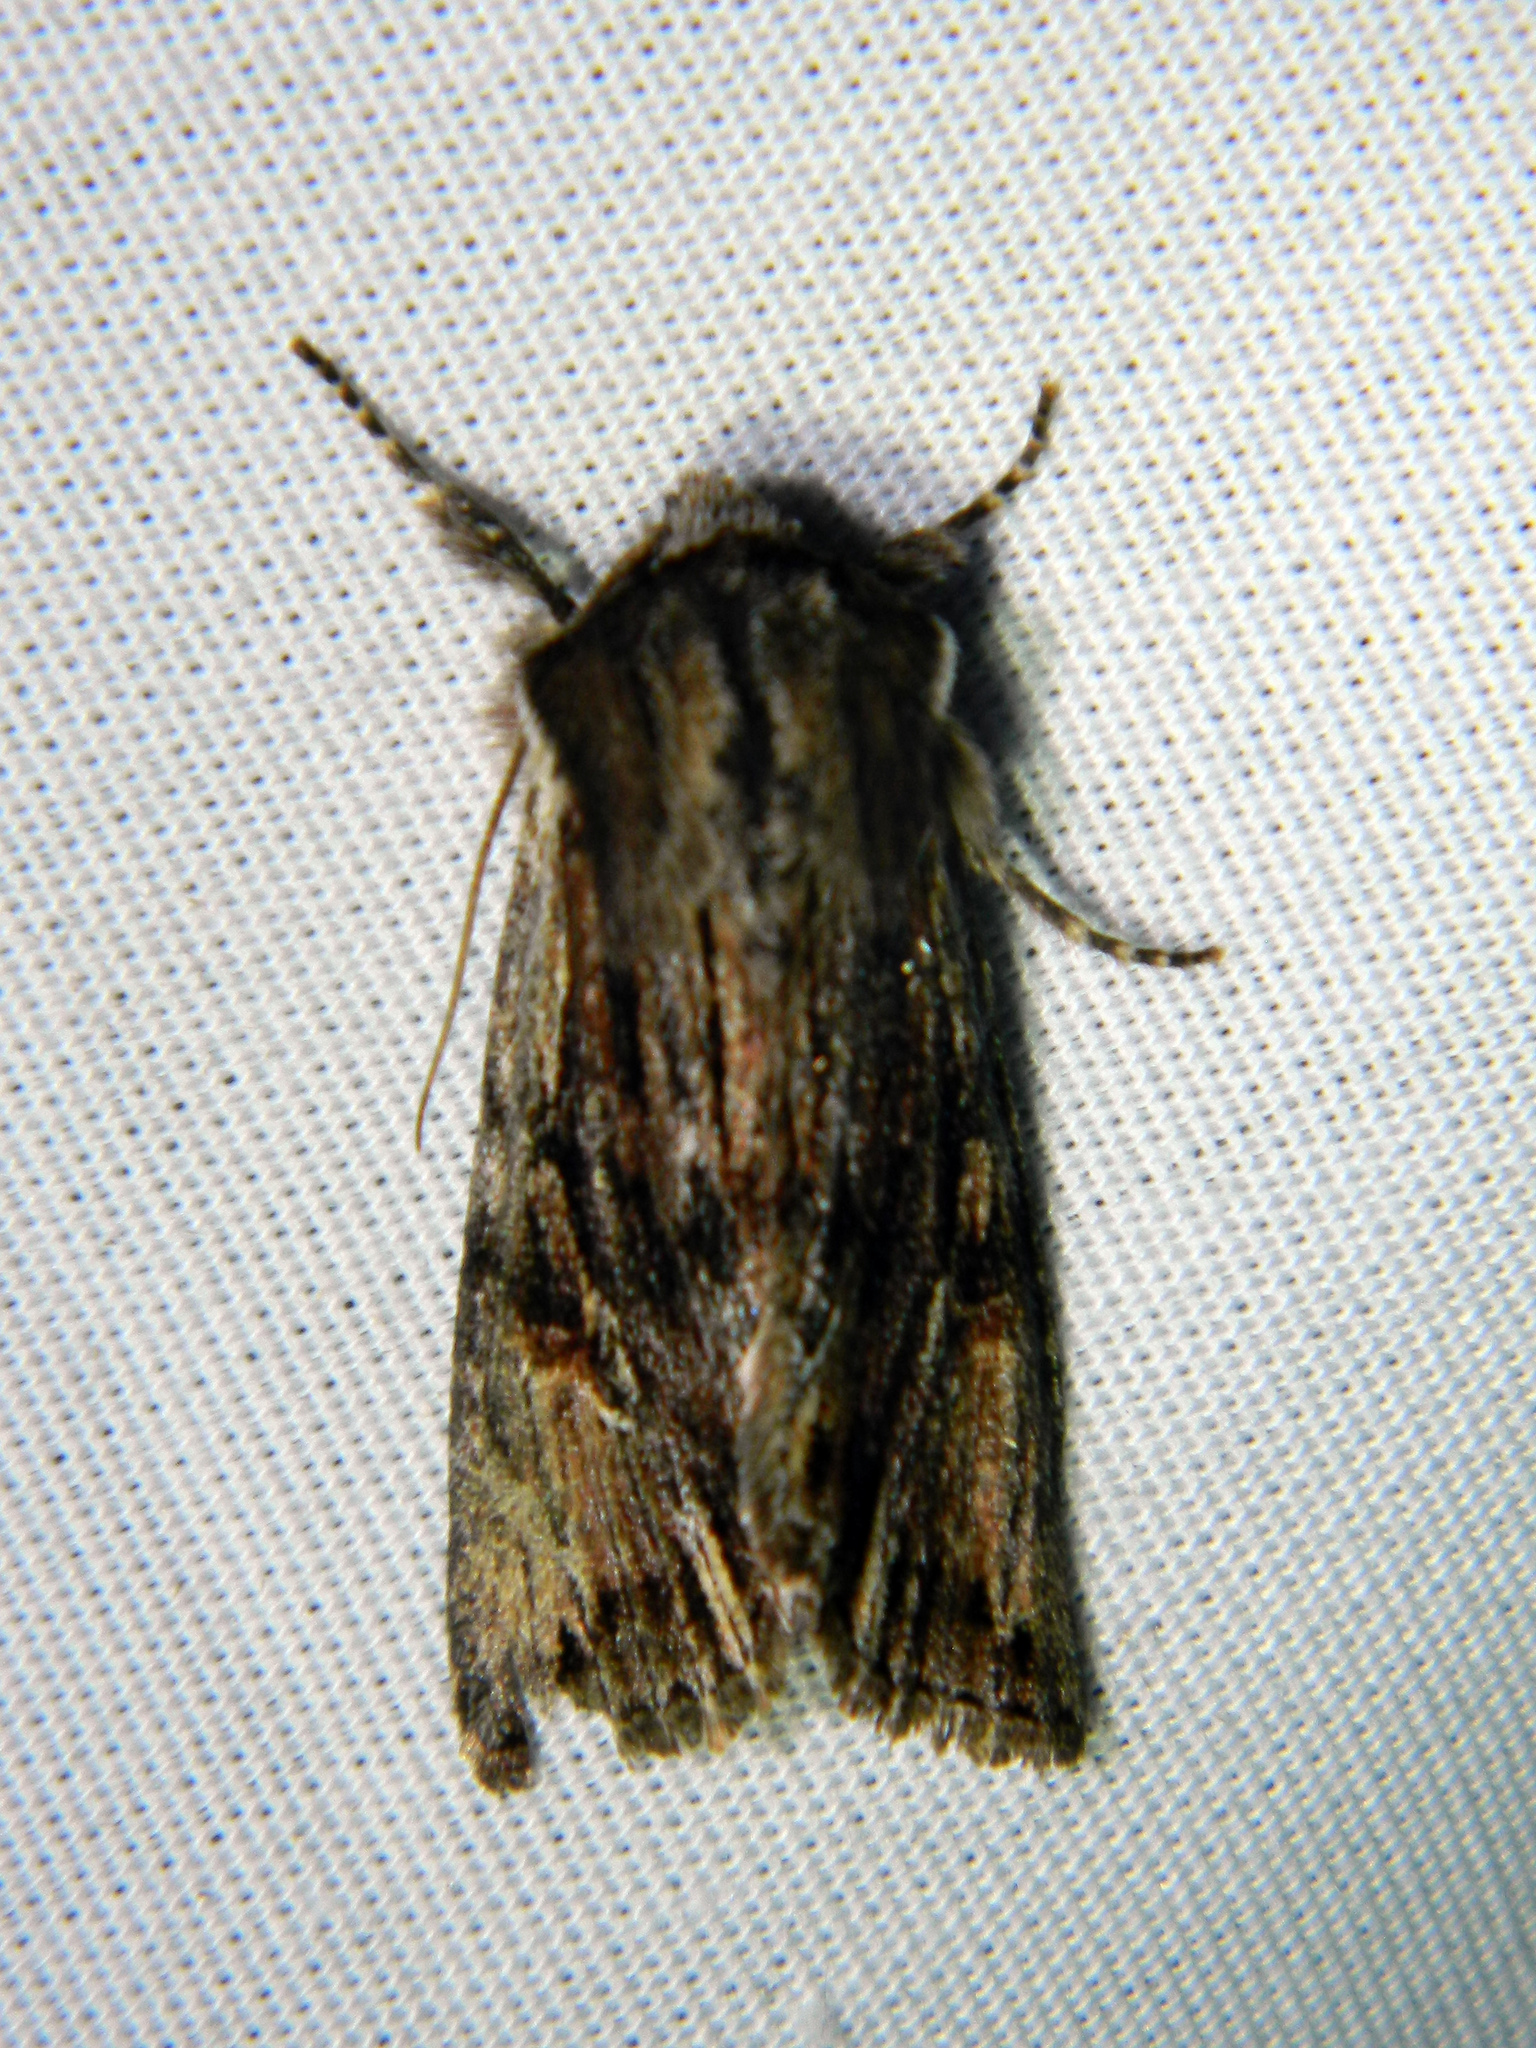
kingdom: Animalia
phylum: Arthropoda
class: Insecta
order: Lepidoptera
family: Noctuidae
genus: Achatia
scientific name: Achatia evicta
